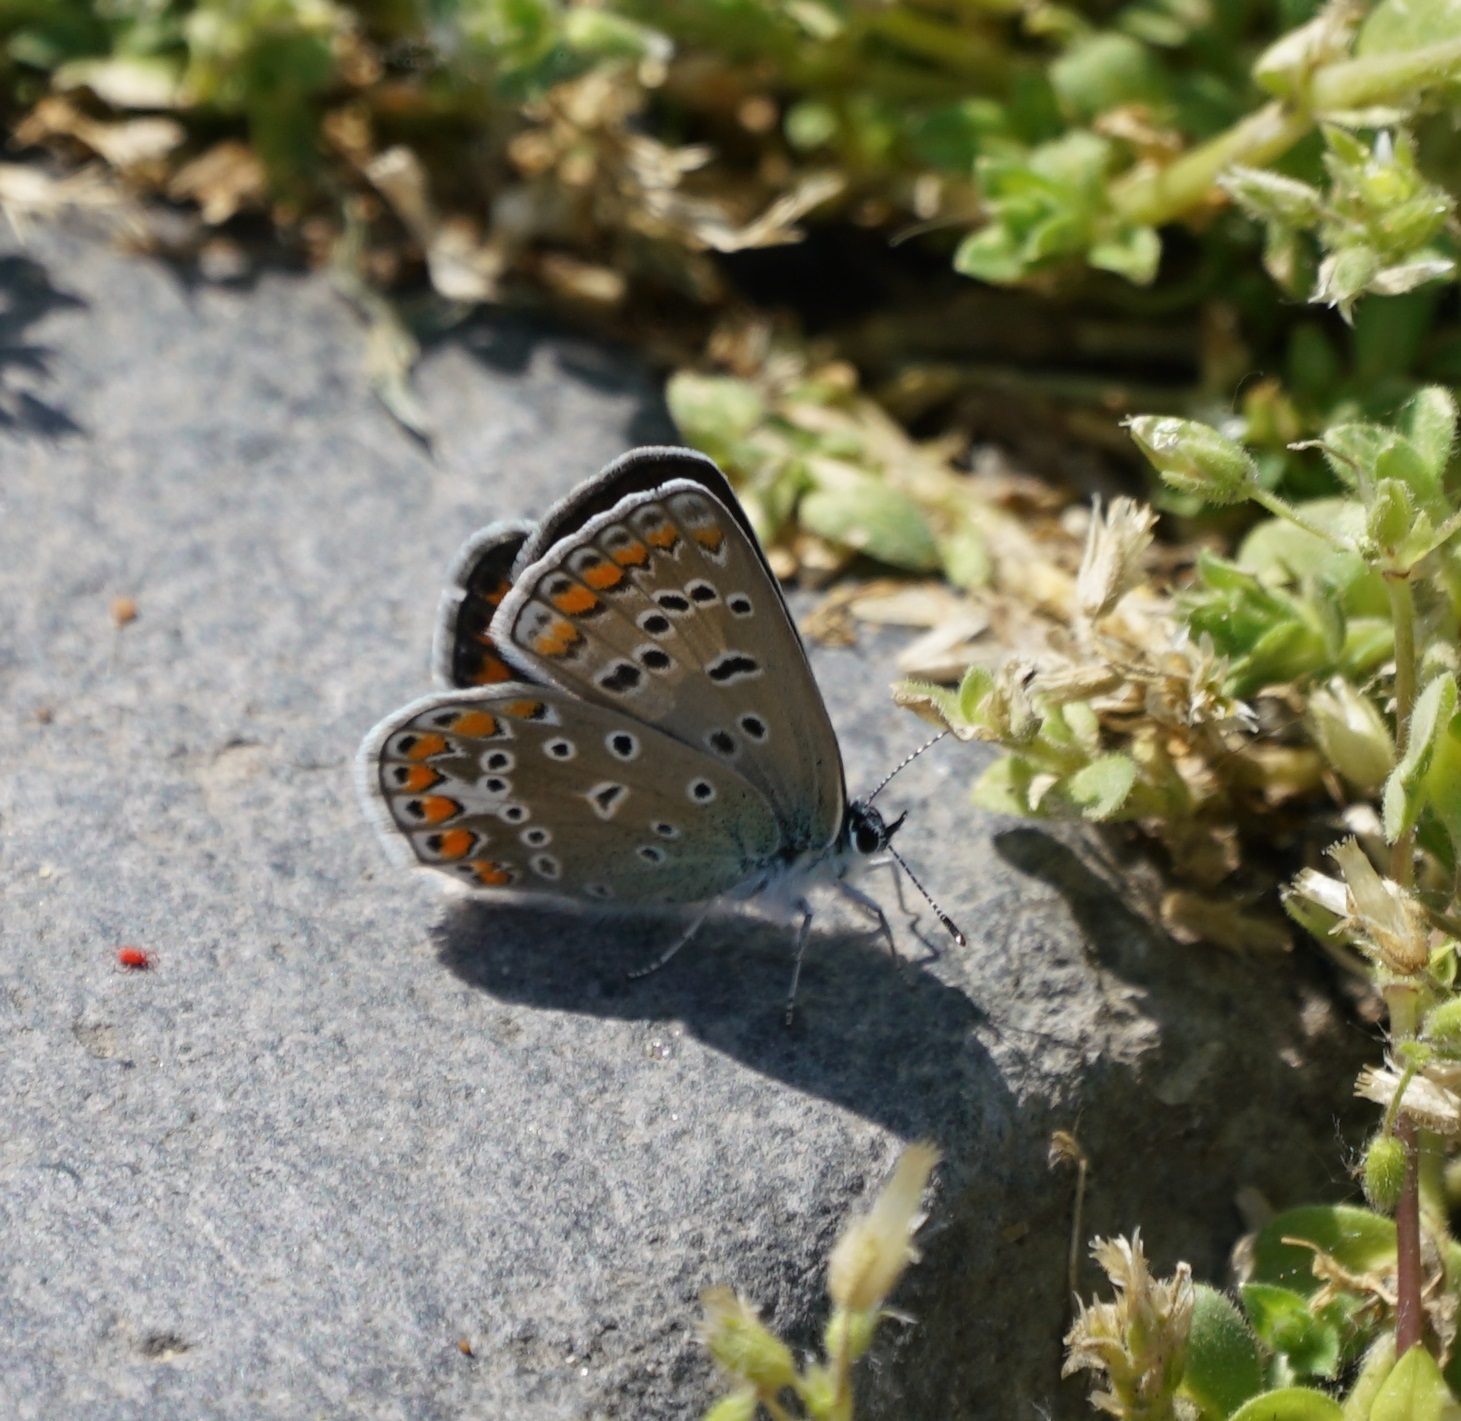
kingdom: Animalia
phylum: Arthropoda
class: Insecta
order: Lepidoptera
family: Lycaenidae
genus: Polyommatus
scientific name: Polyommatus icarus
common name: Common blue
